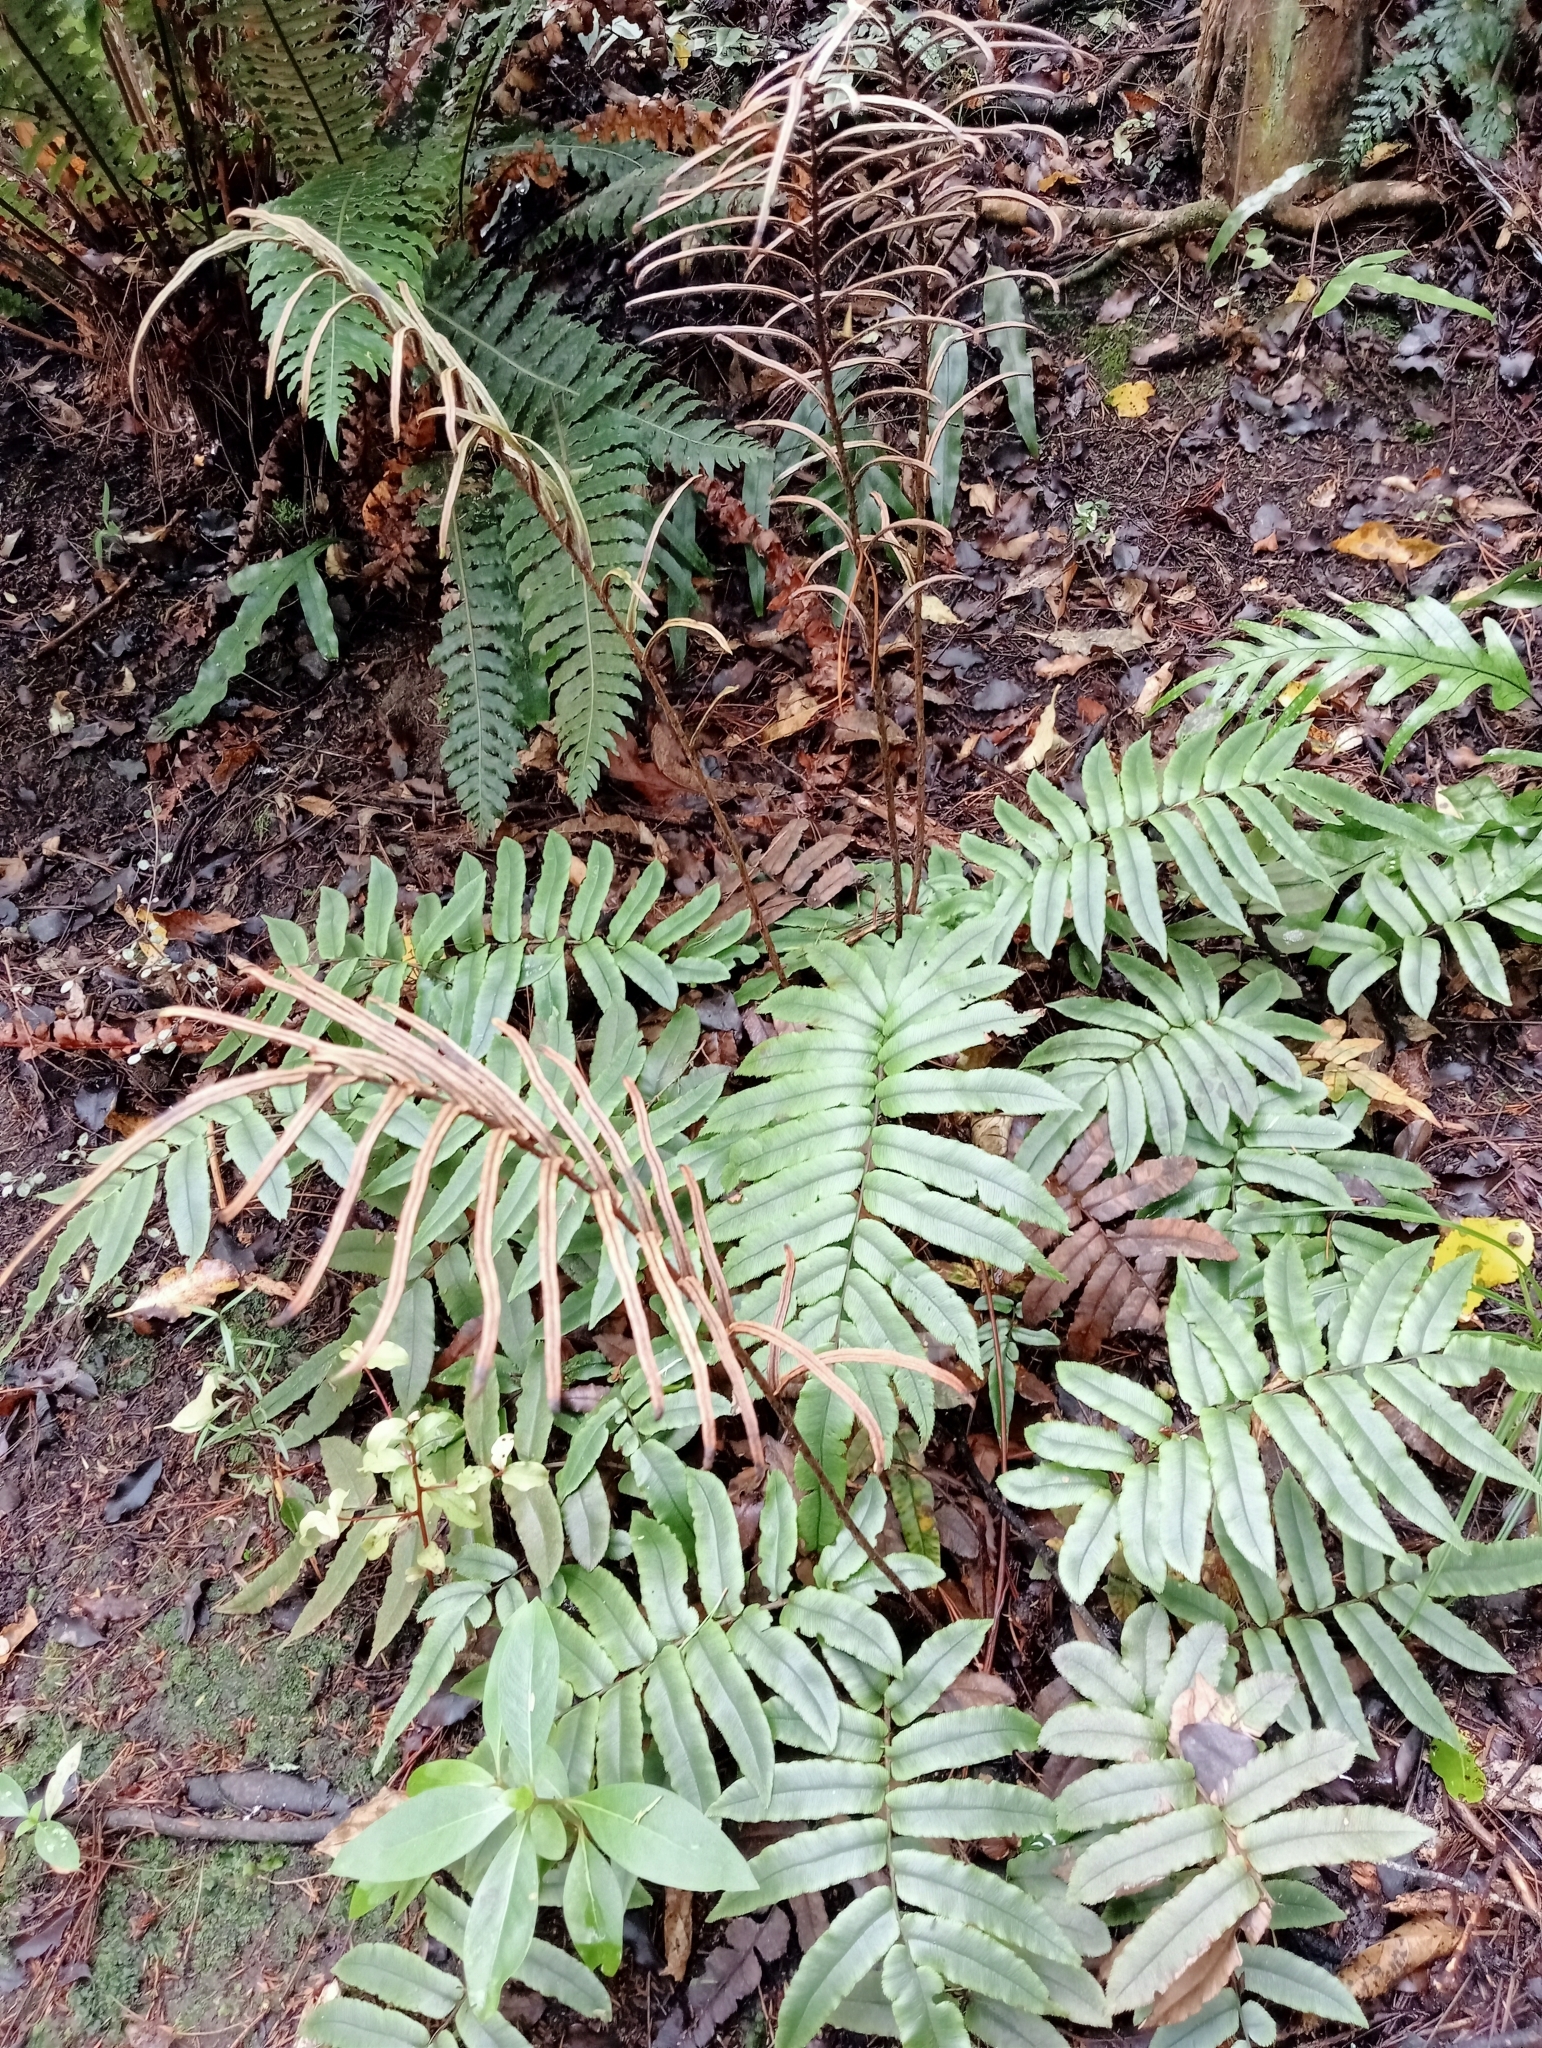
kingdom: Plantae
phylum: Tracheophyta
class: Polypodiopsida
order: Polypodiales
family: Blechnaceae
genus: Parablechnum
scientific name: Parablechnum procerum
